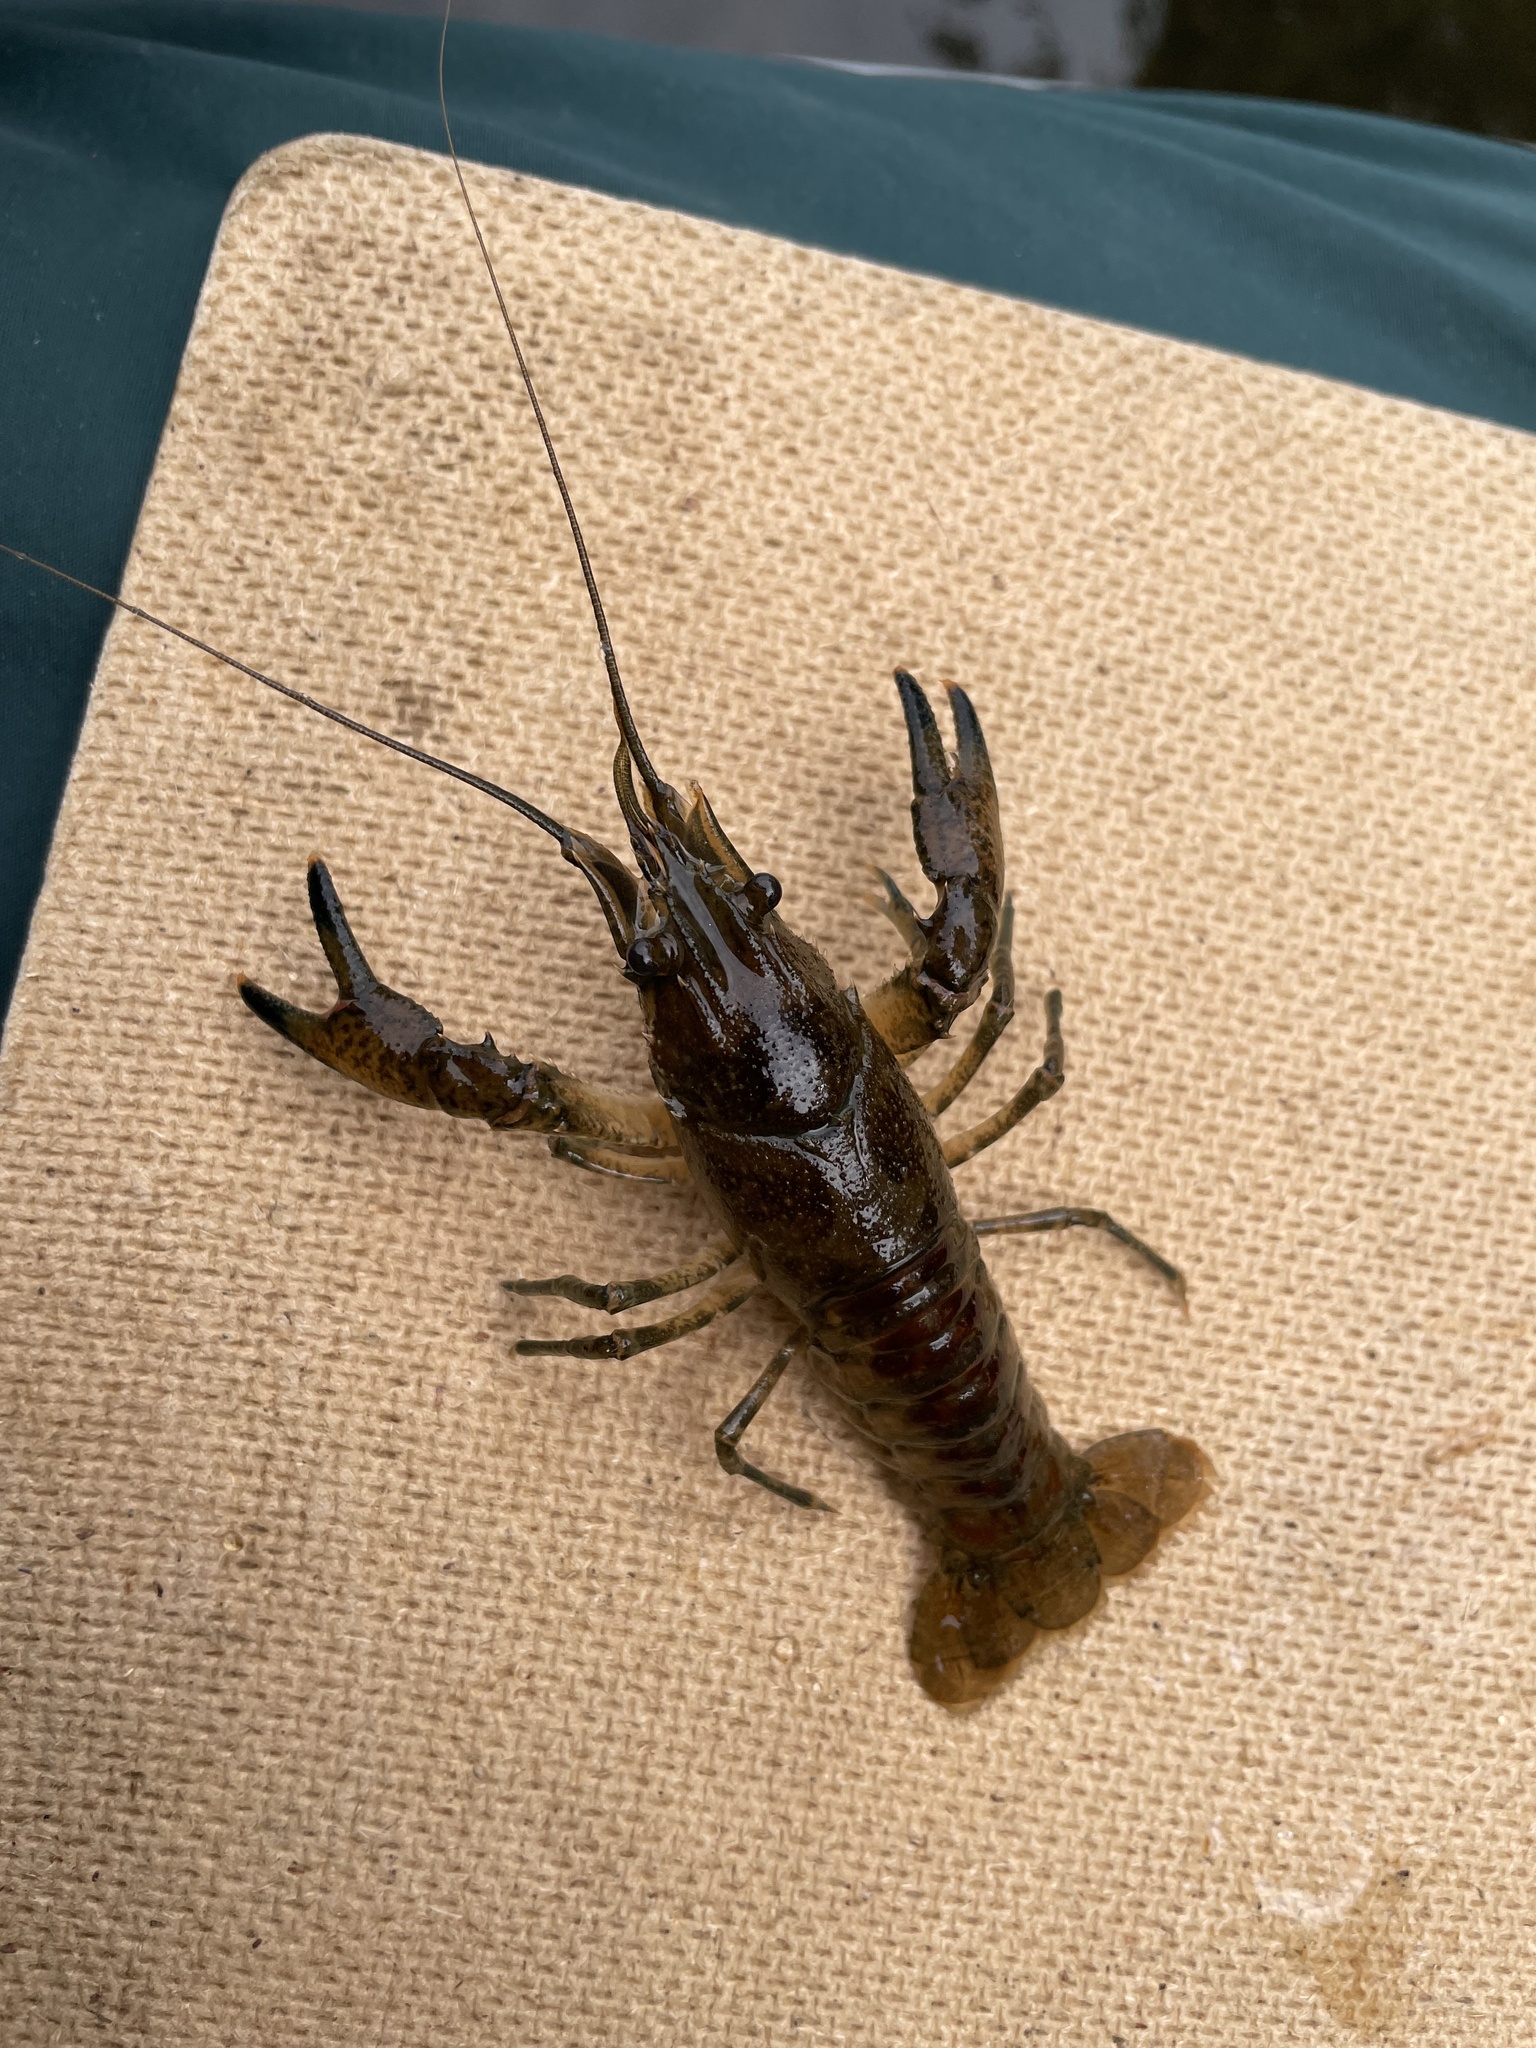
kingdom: Animalia
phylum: Arthropoda
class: Malacostraca
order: Decapoda
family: Cambaridae
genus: Faxonius
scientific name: Faxonius limosus
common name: American crayfish
